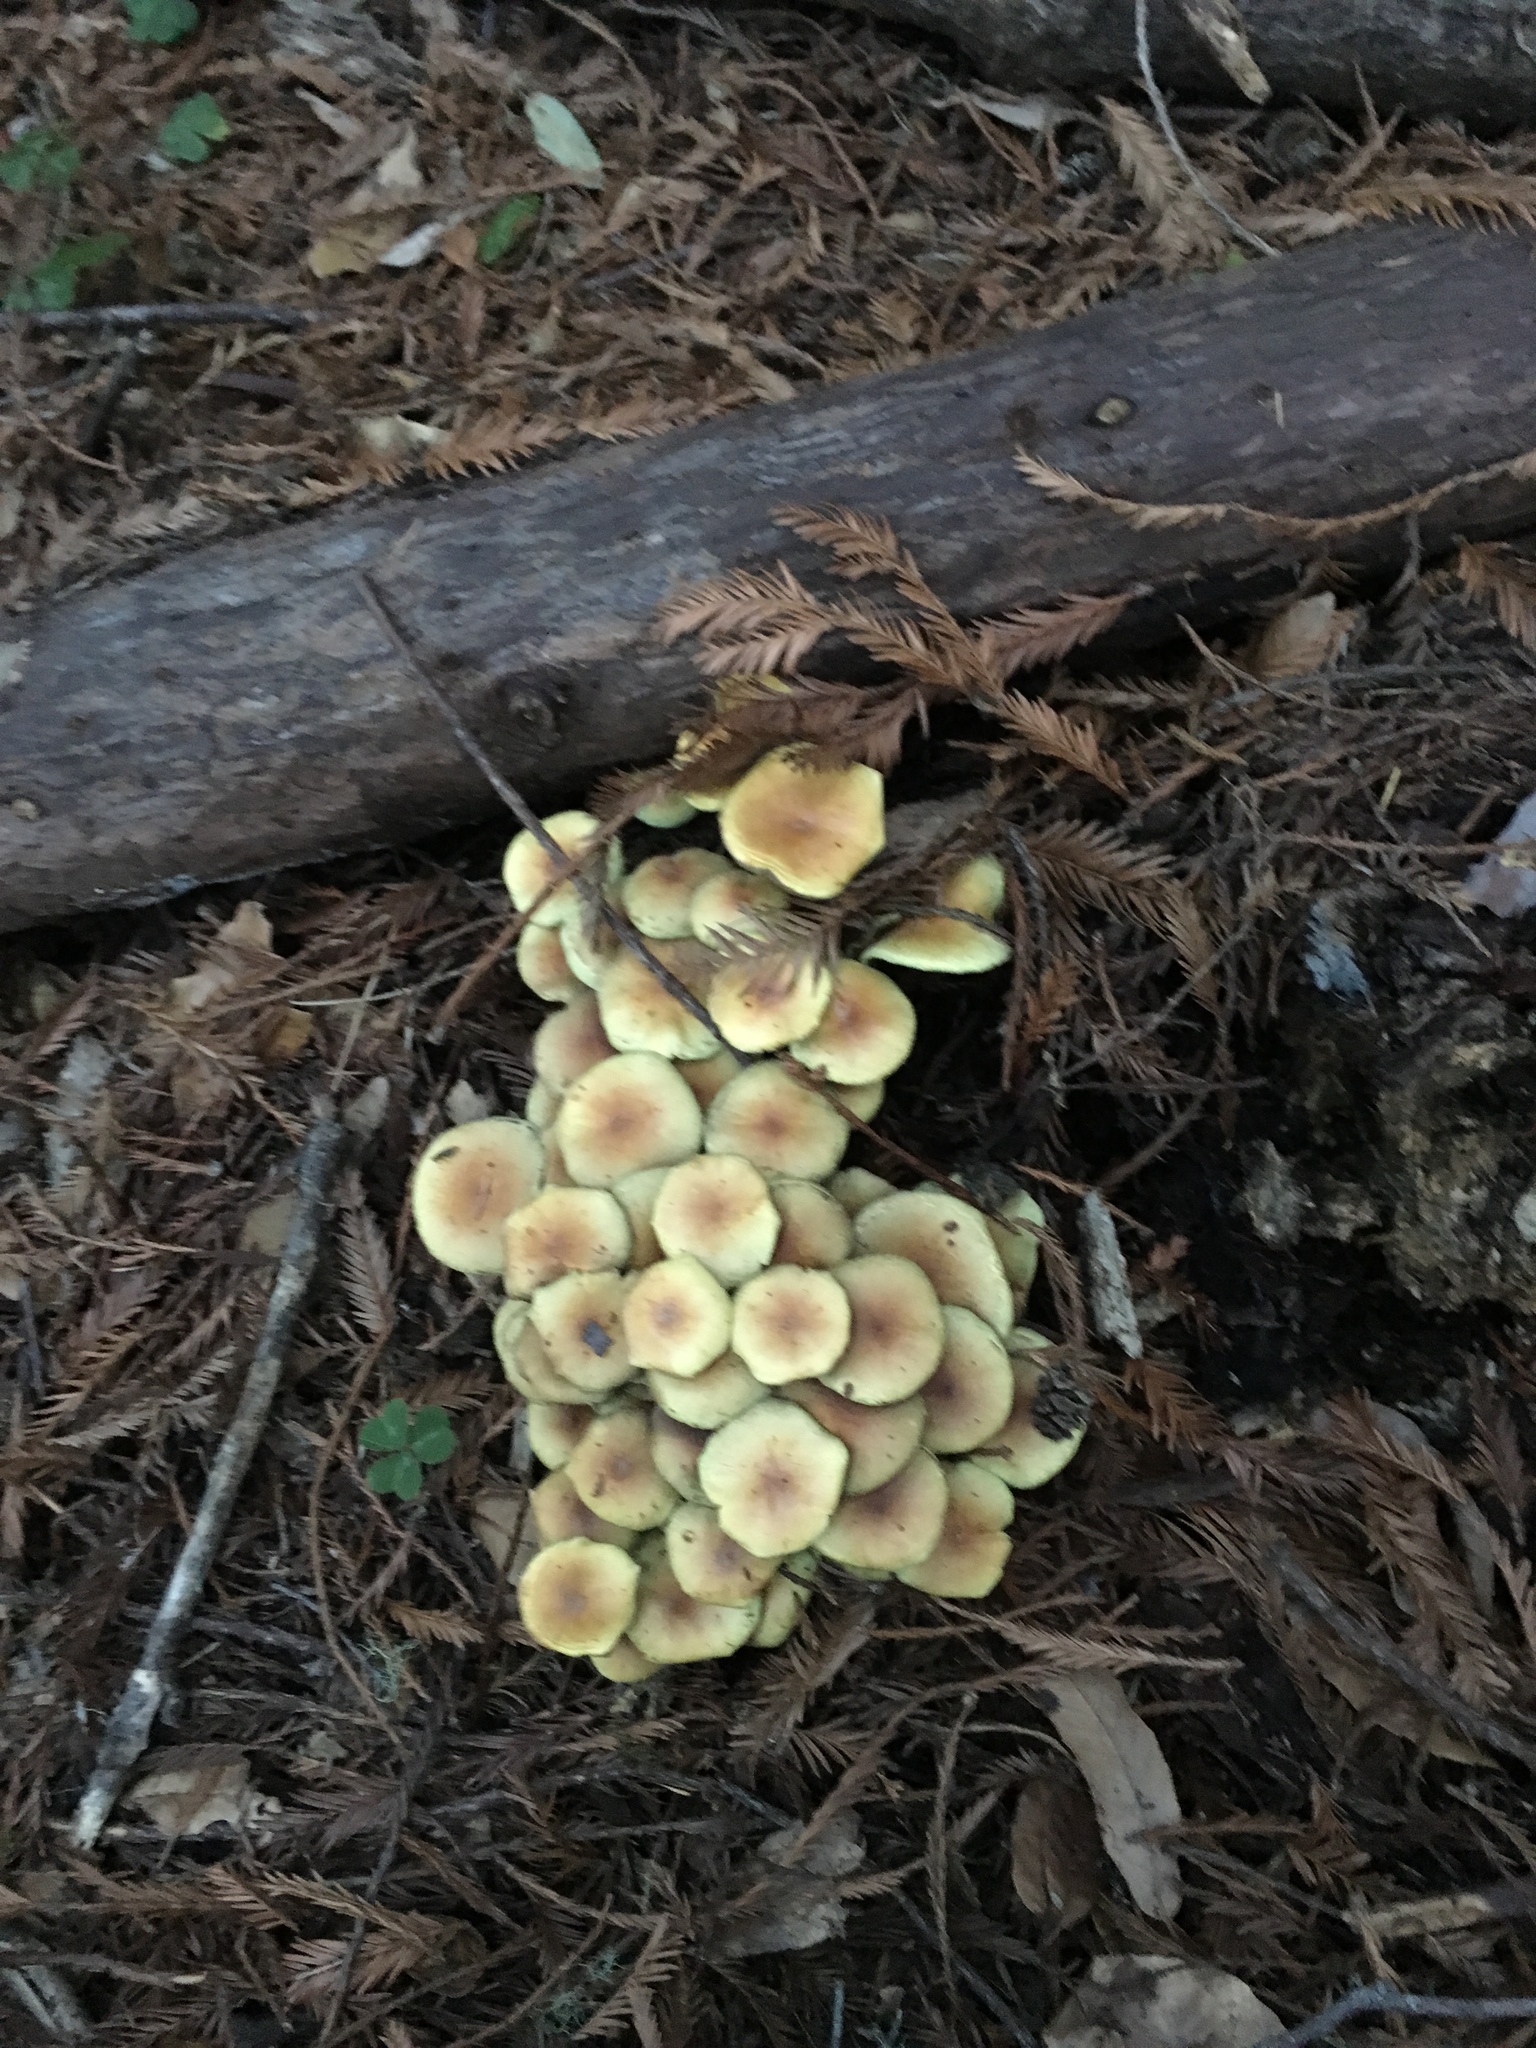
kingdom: Fungi
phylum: Basidiomycota
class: Agaricomycetes
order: Agaricales
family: Strophariaceae
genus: Hypholoma
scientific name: Hypholoma fasciculare
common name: Sulphur tuft
